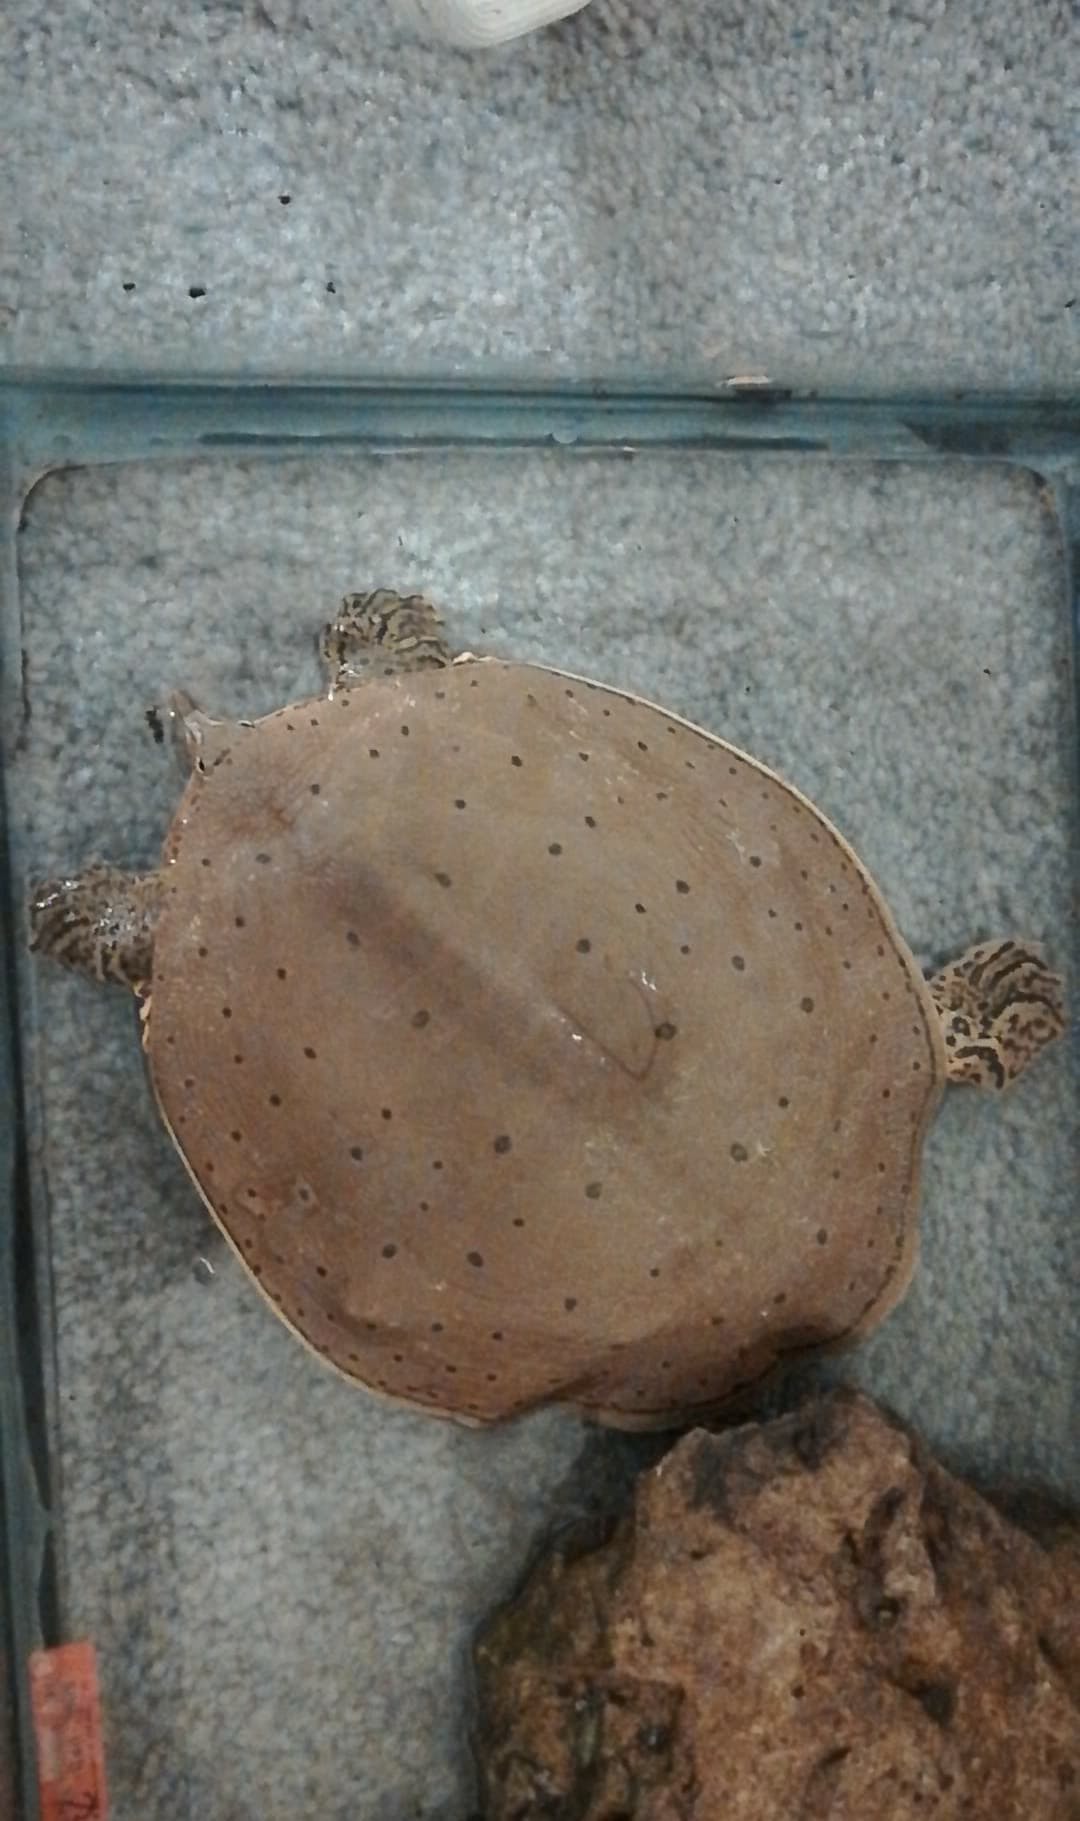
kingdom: Animalia
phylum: Chordata
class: Testudines
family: Trionychidae
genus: Apalone
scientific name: Apalone spinifera
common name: Spiny softshell turtle
